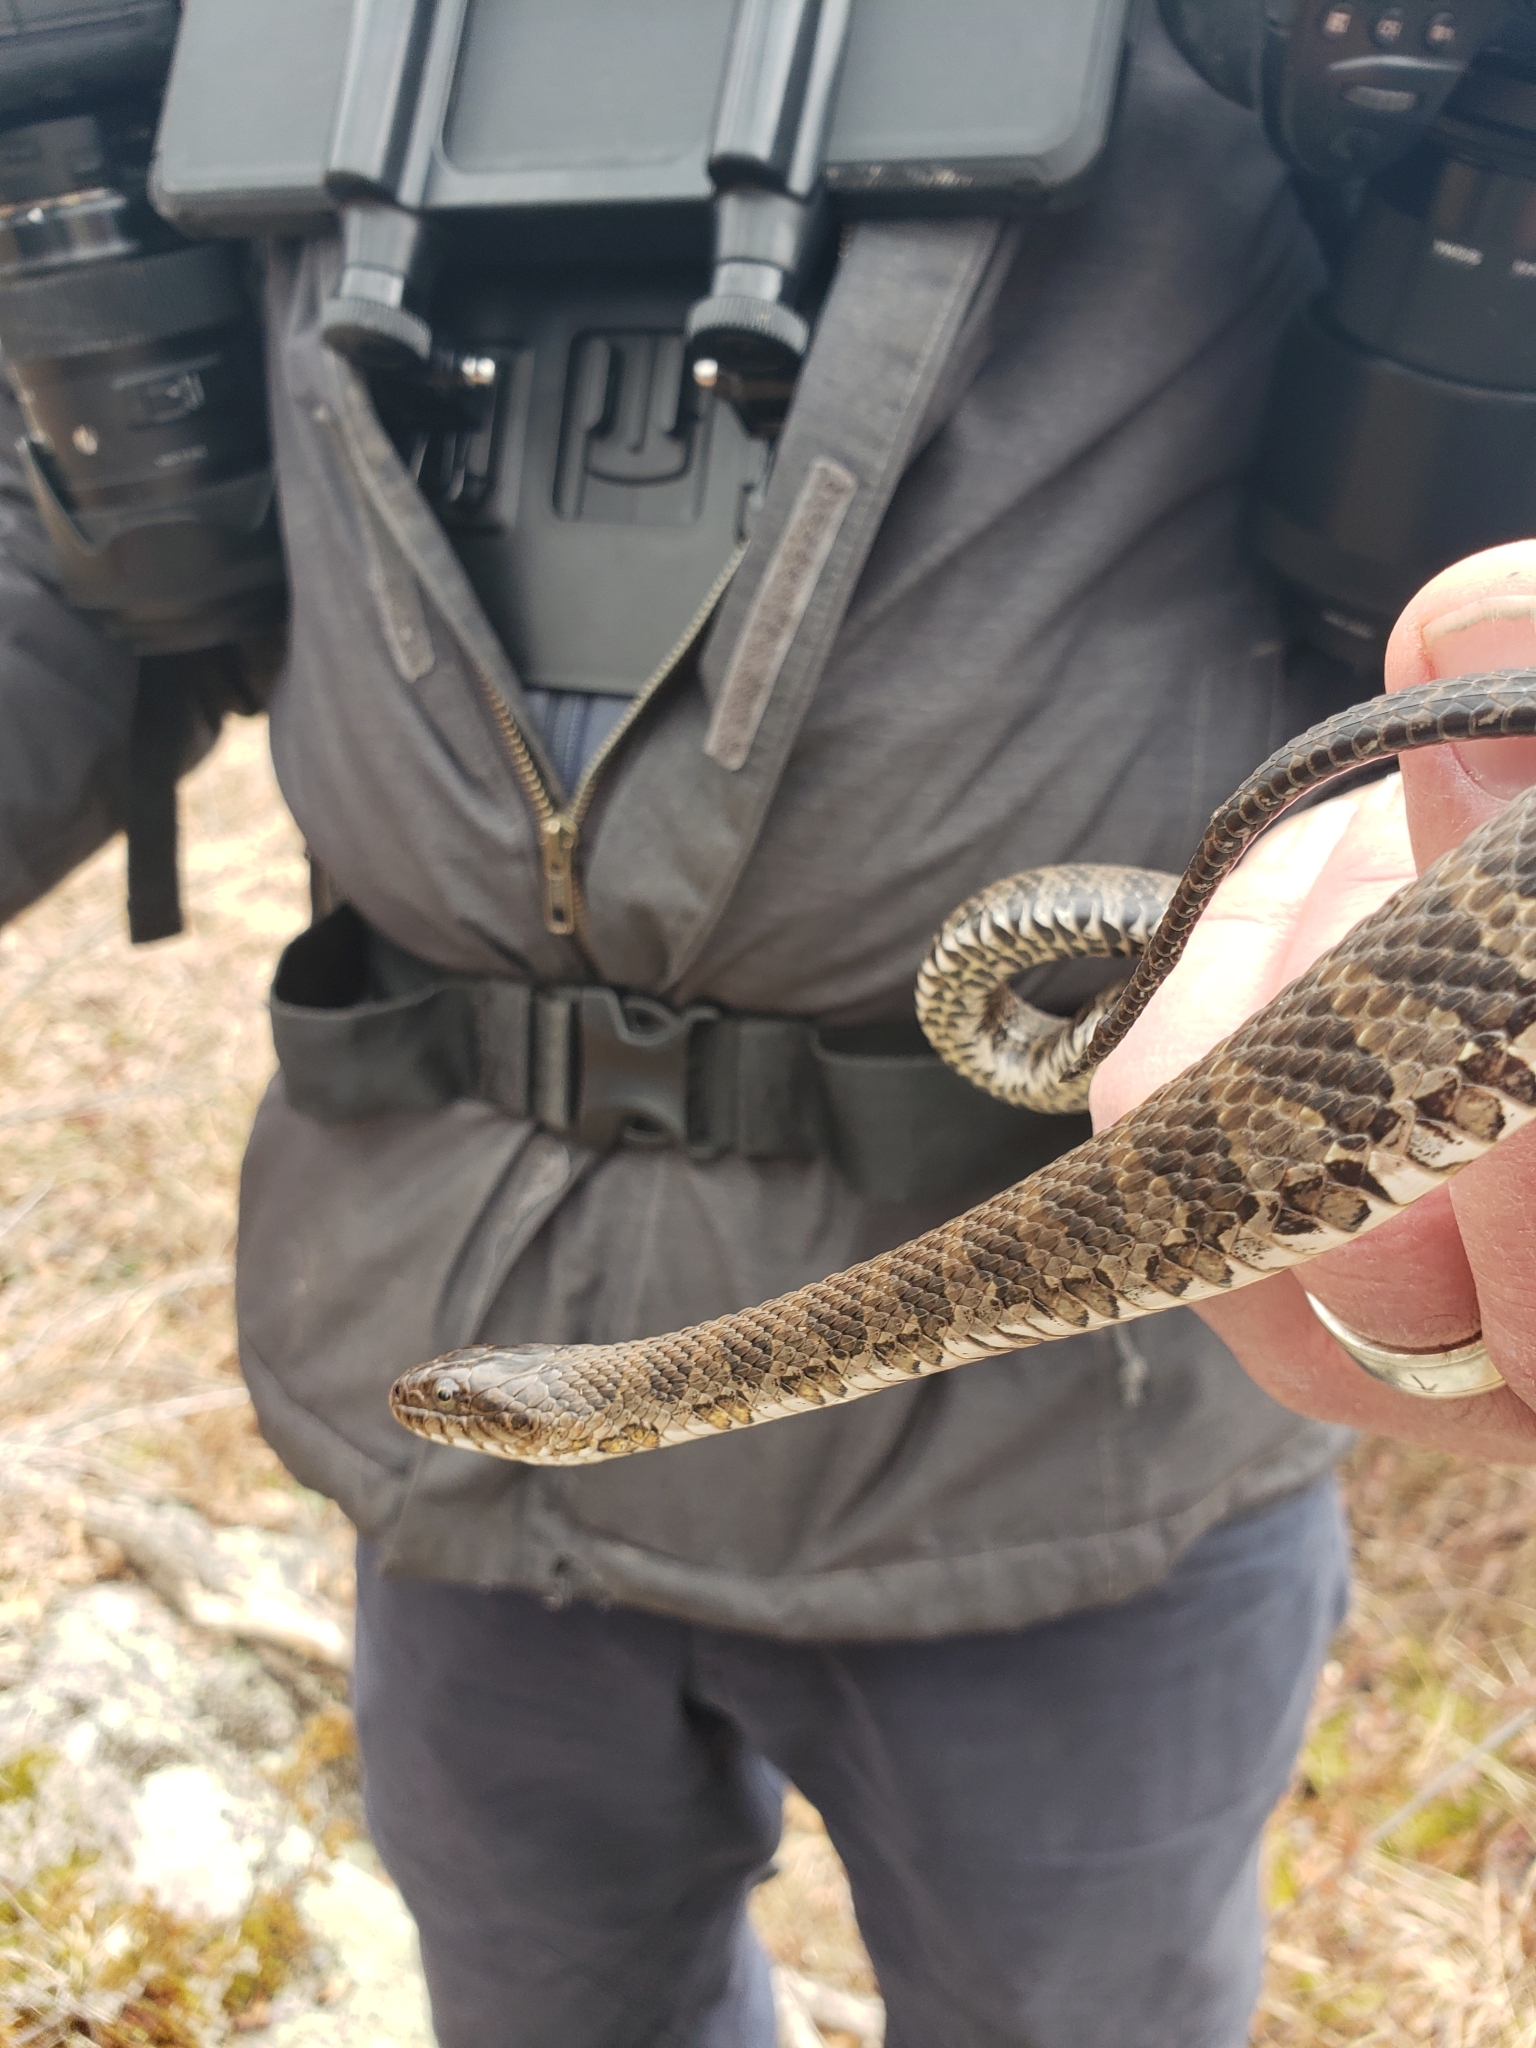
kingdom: Animalia
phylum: Chordata
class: Squamata
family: Colubridae
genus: Nerodia
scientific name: Nerodia sipedon
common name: Northern water snake
